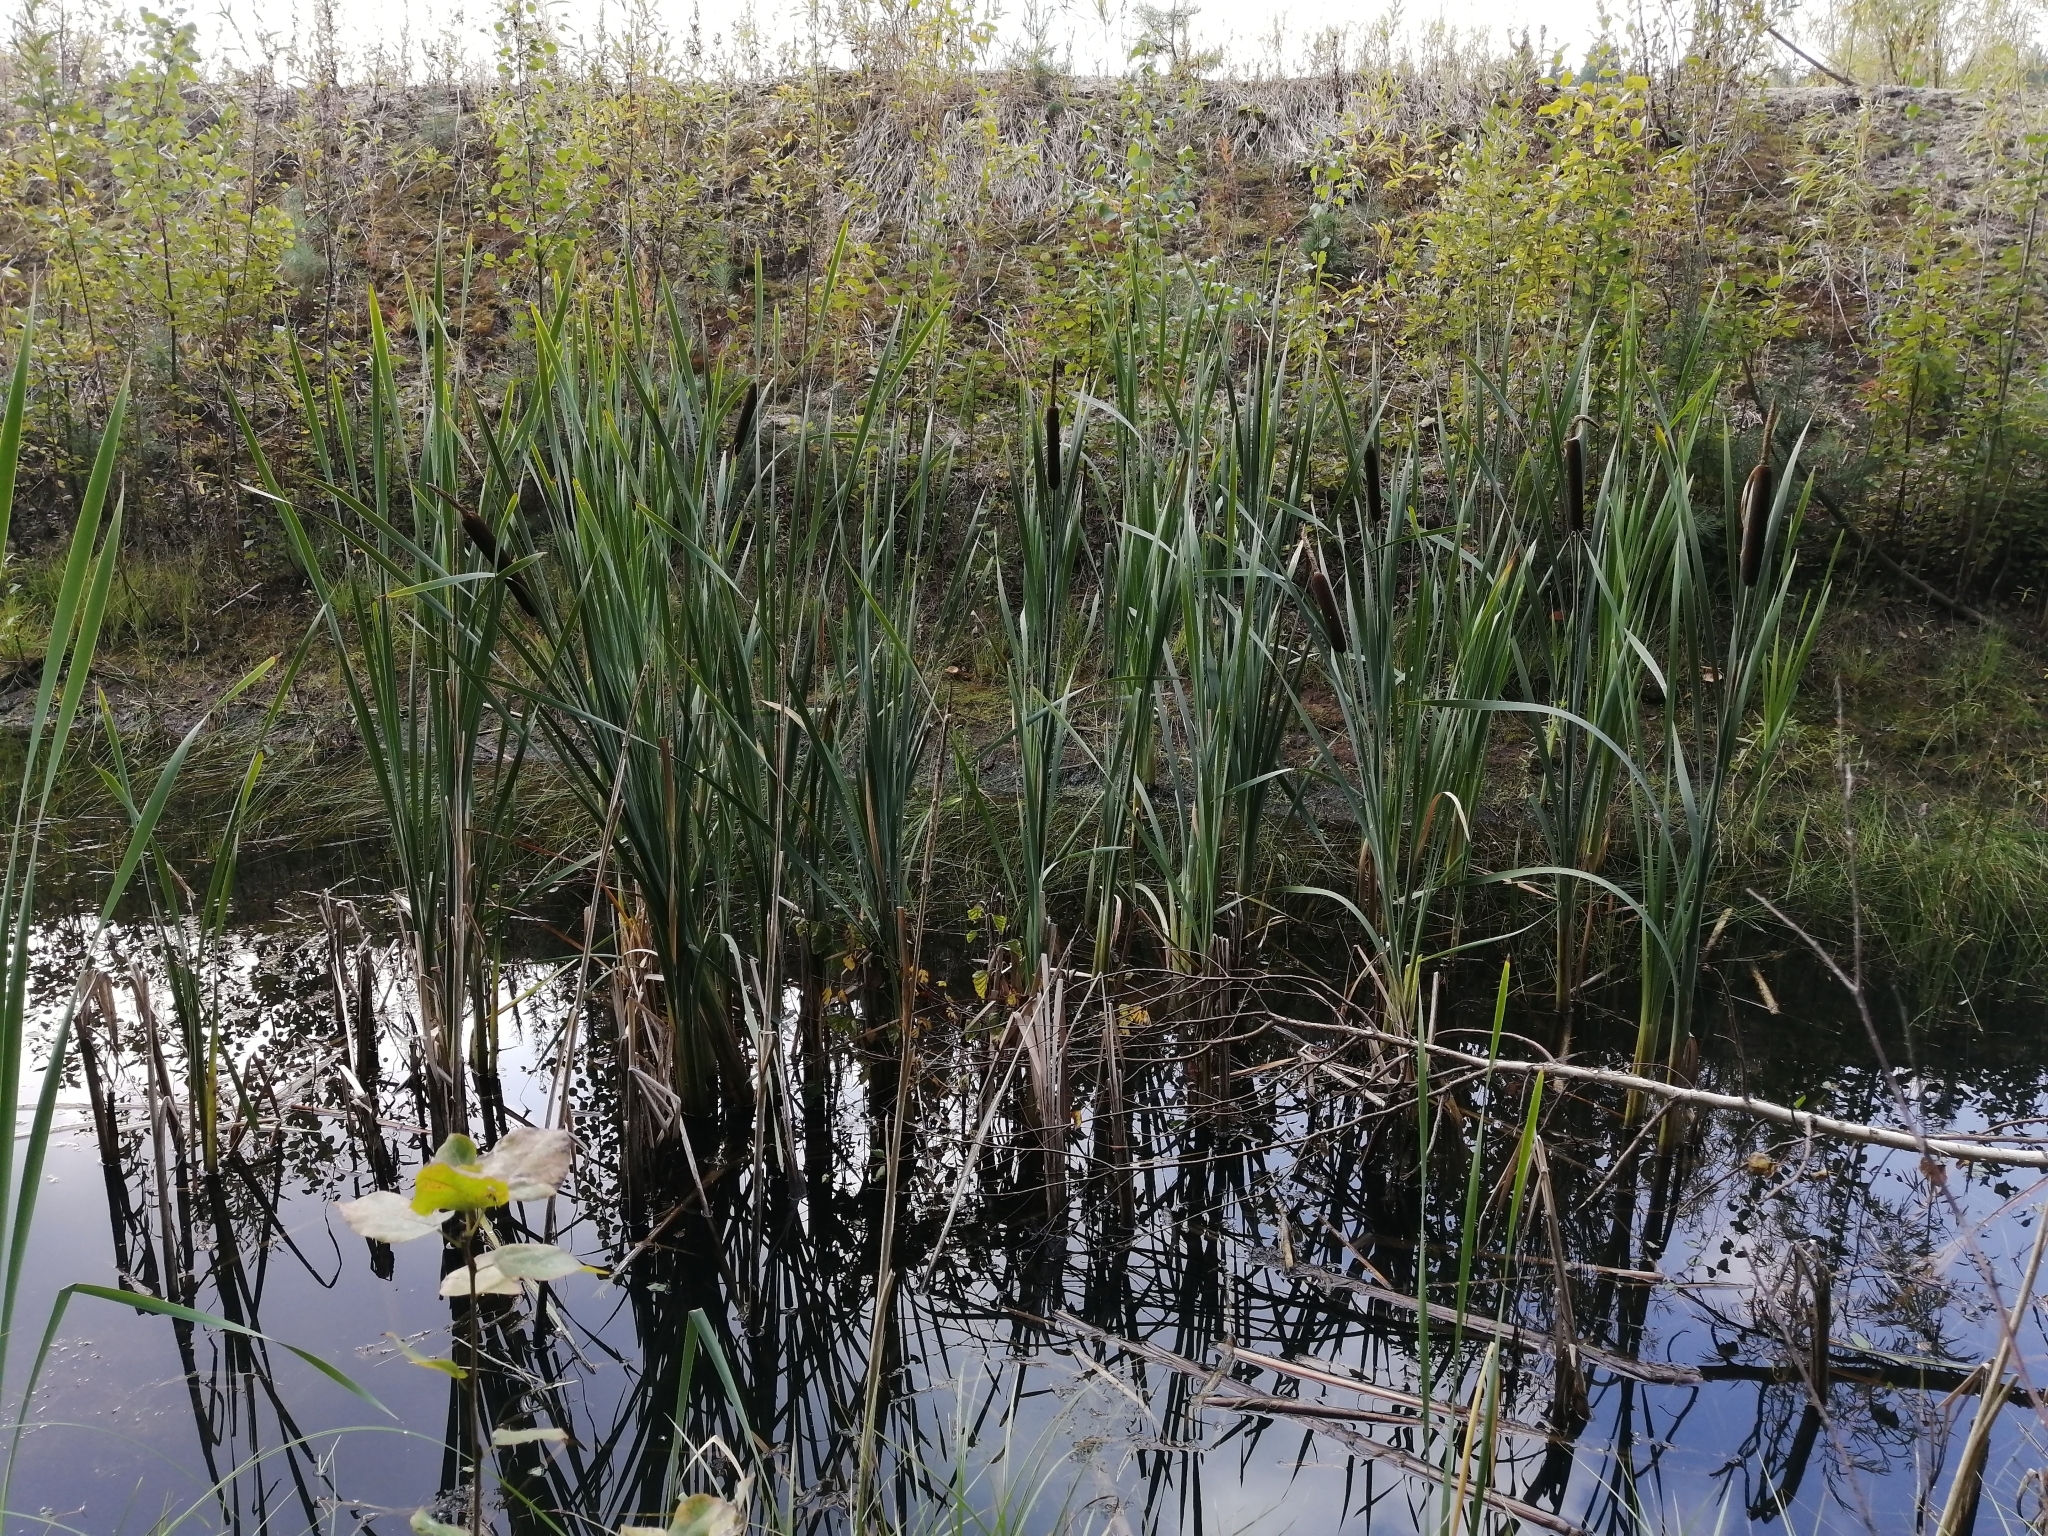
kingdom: Plantae
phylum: Tracheophyta
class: Liliopsida
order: Poales
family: Typhaceae
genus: Typha
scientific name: Typha latifolia
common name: Broadleaf cattail
